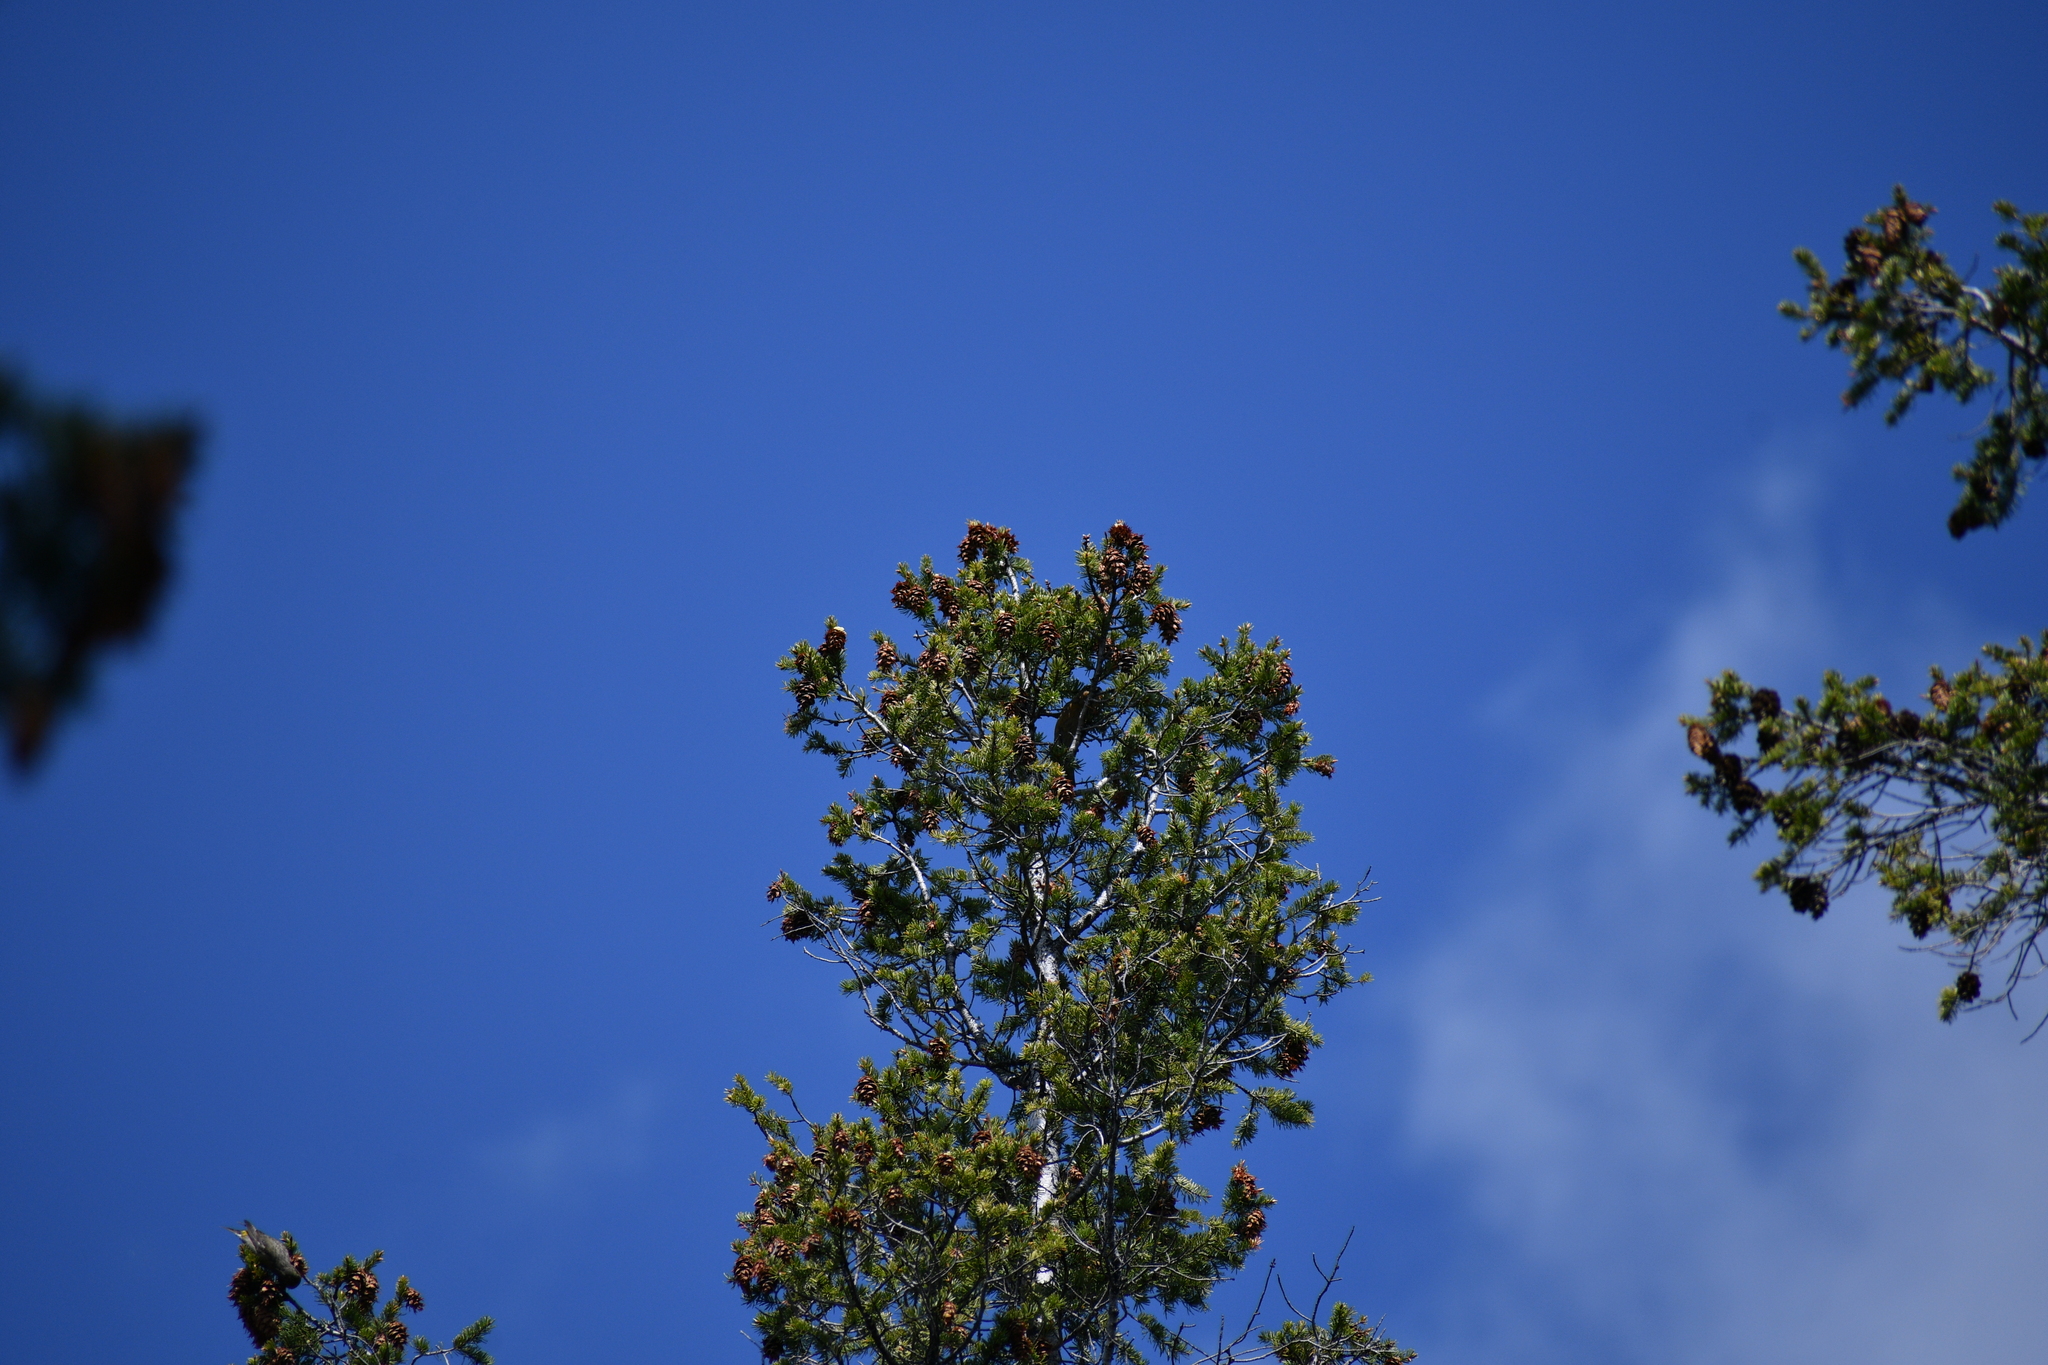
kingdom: Plantae
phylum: Tracheophyta
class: Pinopsida
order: Pinales
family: Pinaceae
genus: Pseudotsuga
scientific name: Pseudotsuga menziesii
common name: Douglas fir
